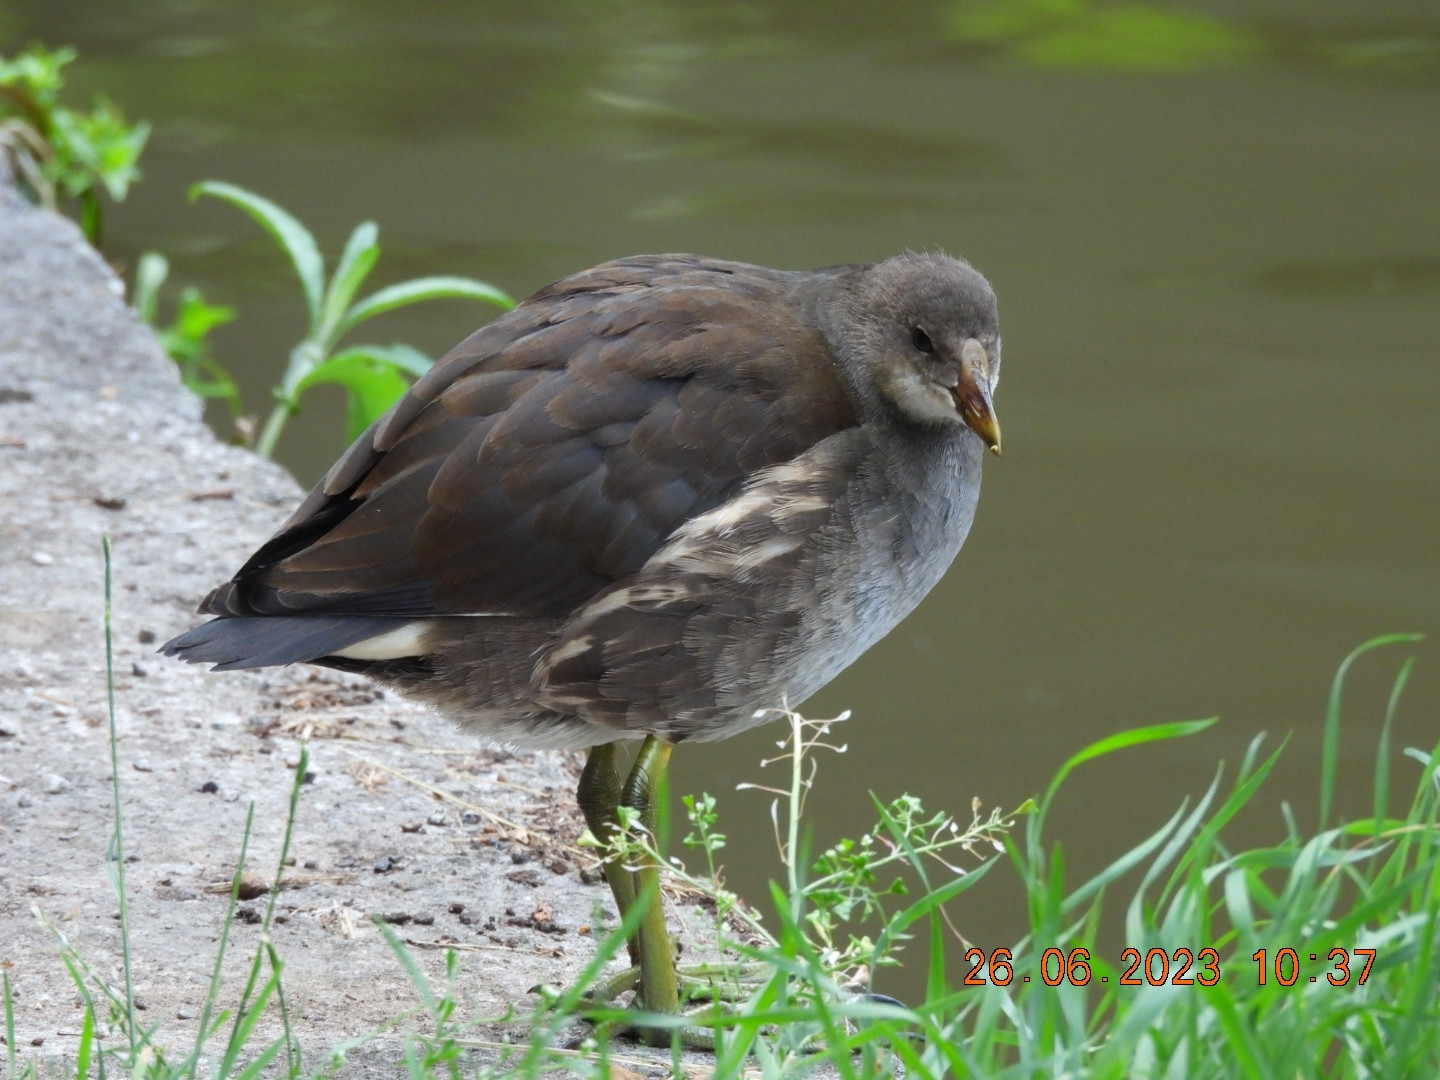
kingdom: Animalia
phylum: Chordata
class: Aves
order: Gruiformes
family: Rallidae
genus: Gallinula
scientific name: Gallinula chloropus
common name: Common moorhen
